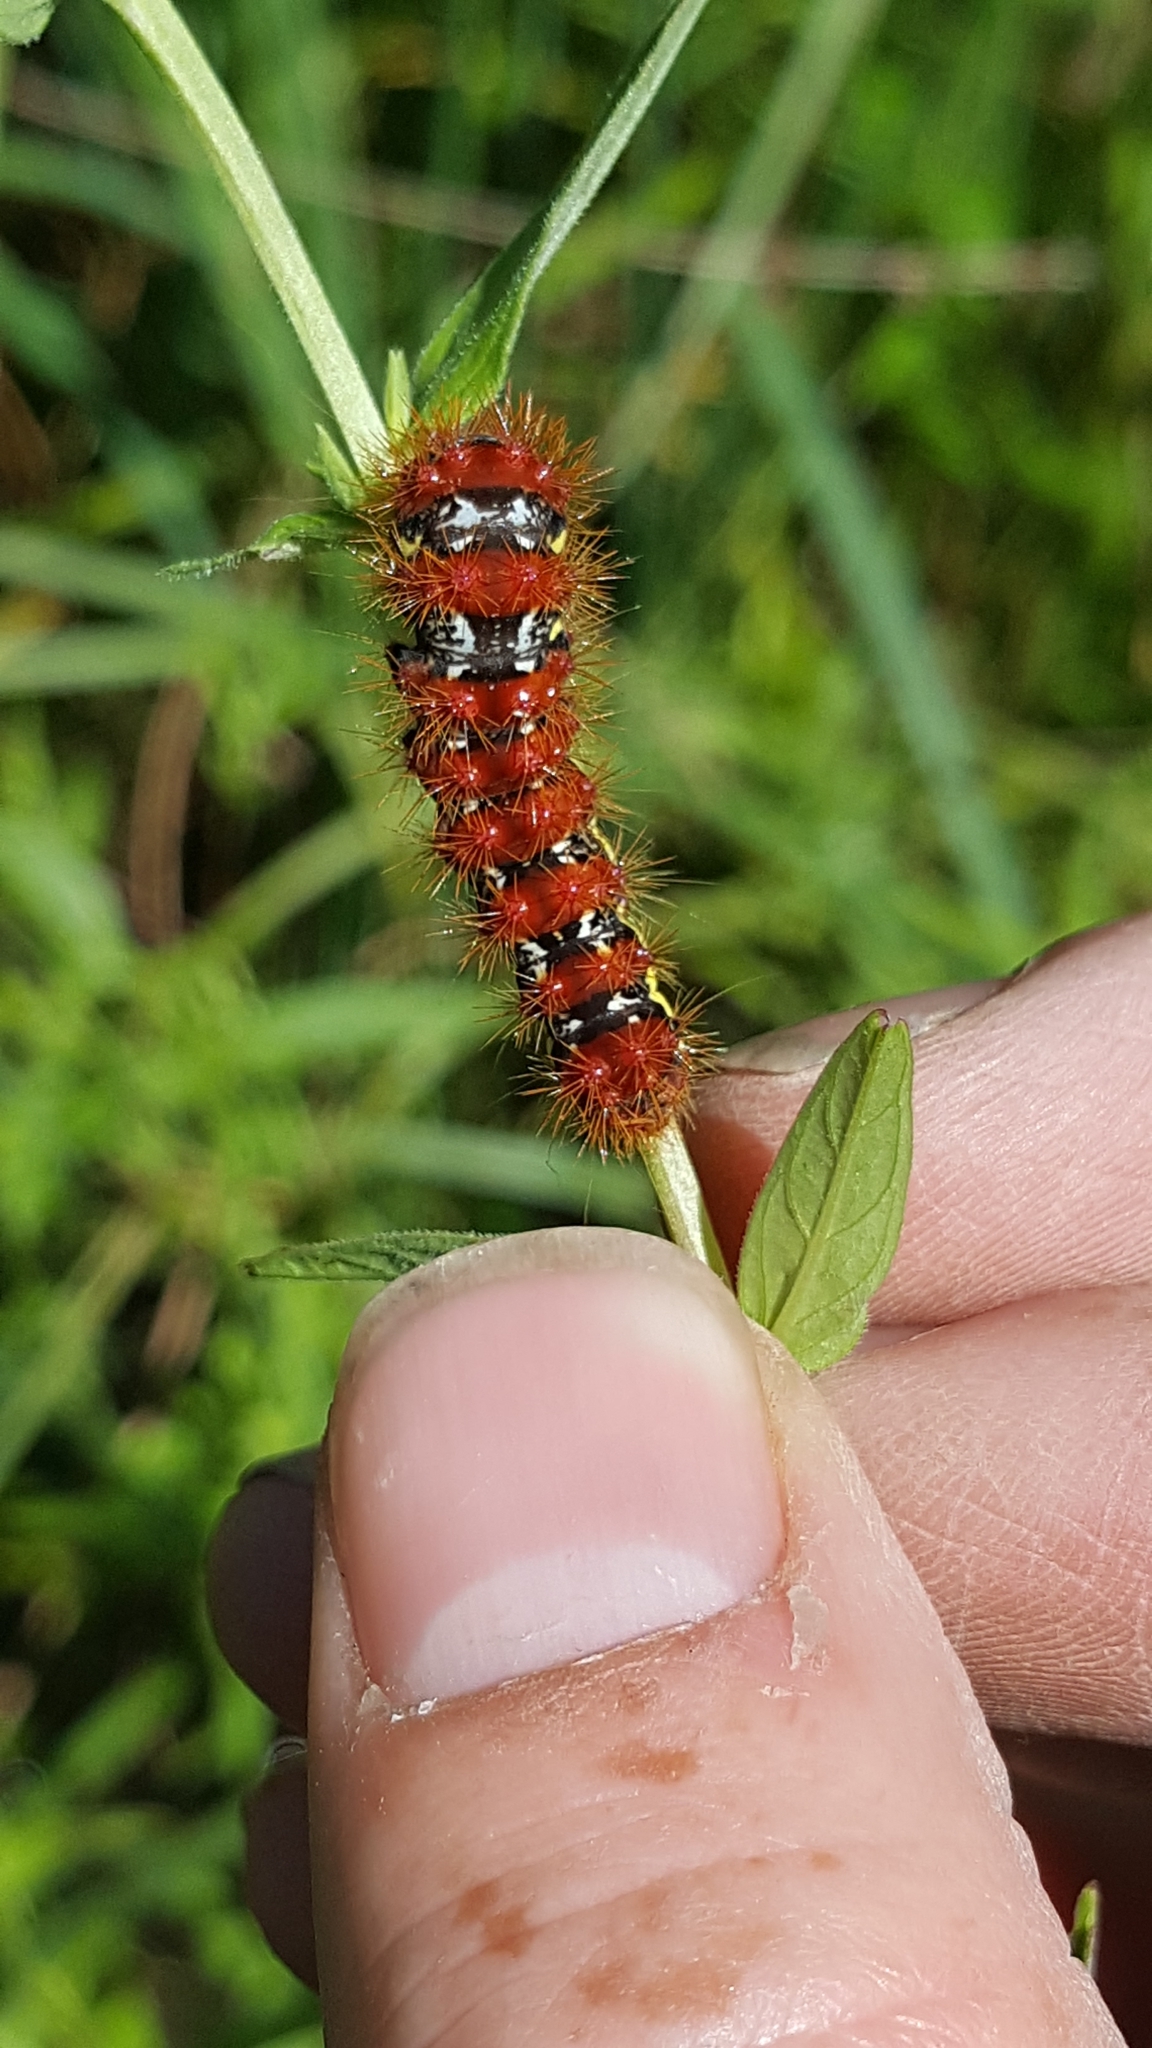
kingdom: Animalia
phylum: Arthropoda
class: Insecta
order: Lepidoptera
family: Noctuidae
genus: Acronicta
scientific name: Acronicta oblinita
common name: Smeared dagger
